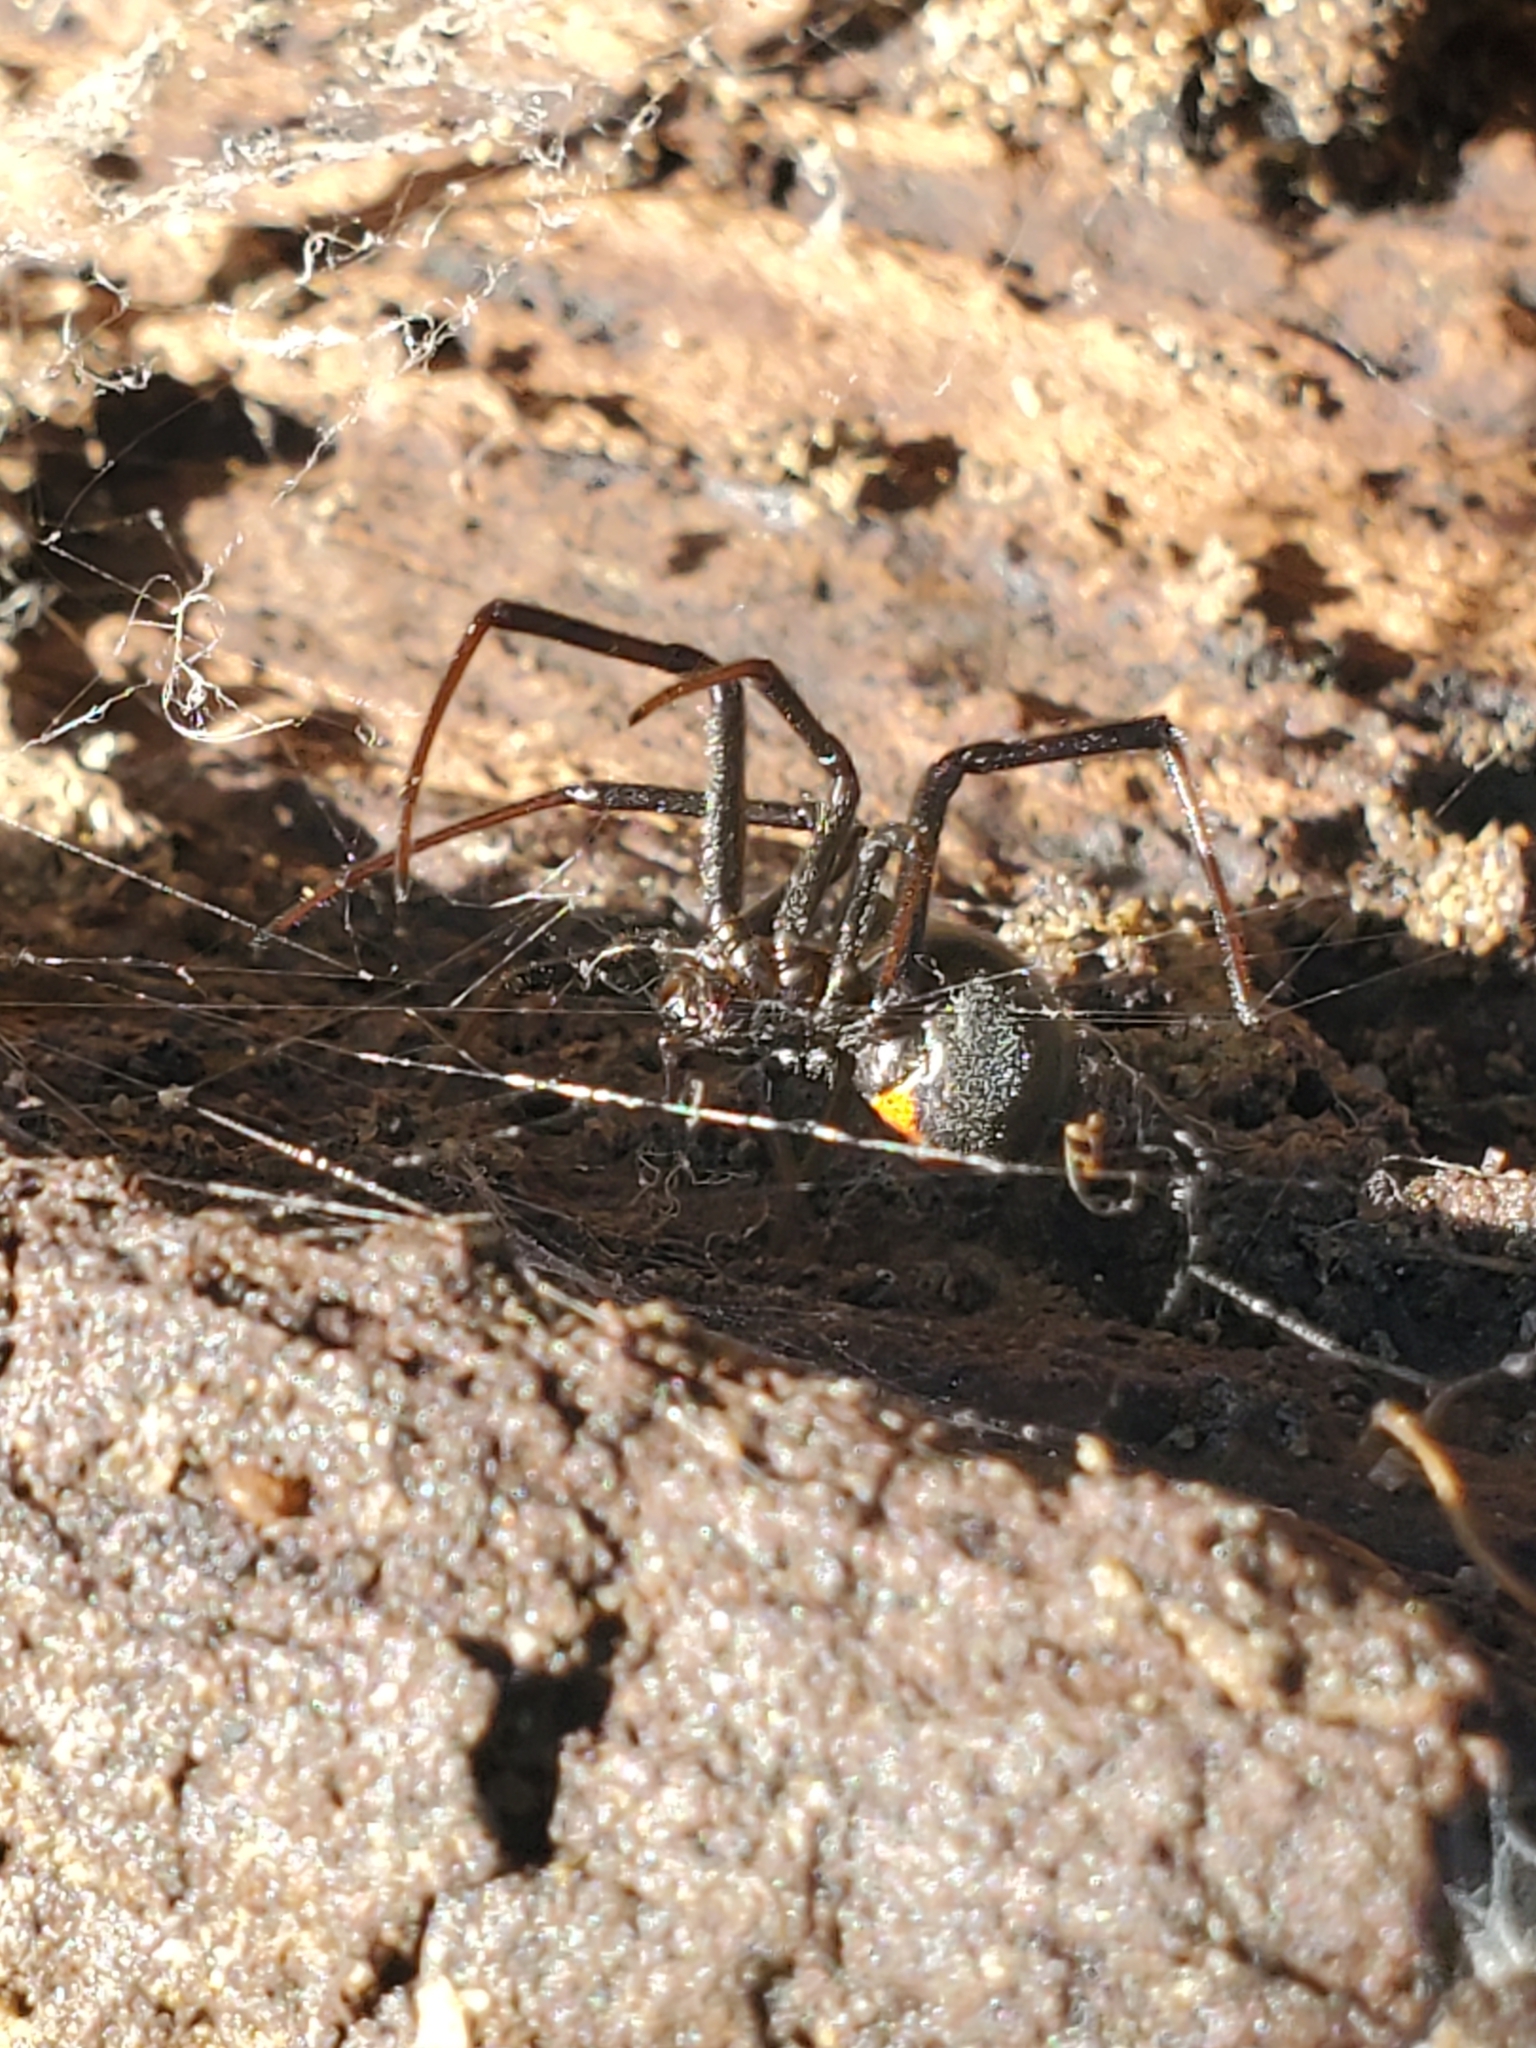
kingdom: Animalia
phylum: Arthropoda
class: Arachnida
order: Araneae
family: Theridiidae
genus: Latrodectus
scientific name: Latrodectus hesperus
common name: Western black widow
